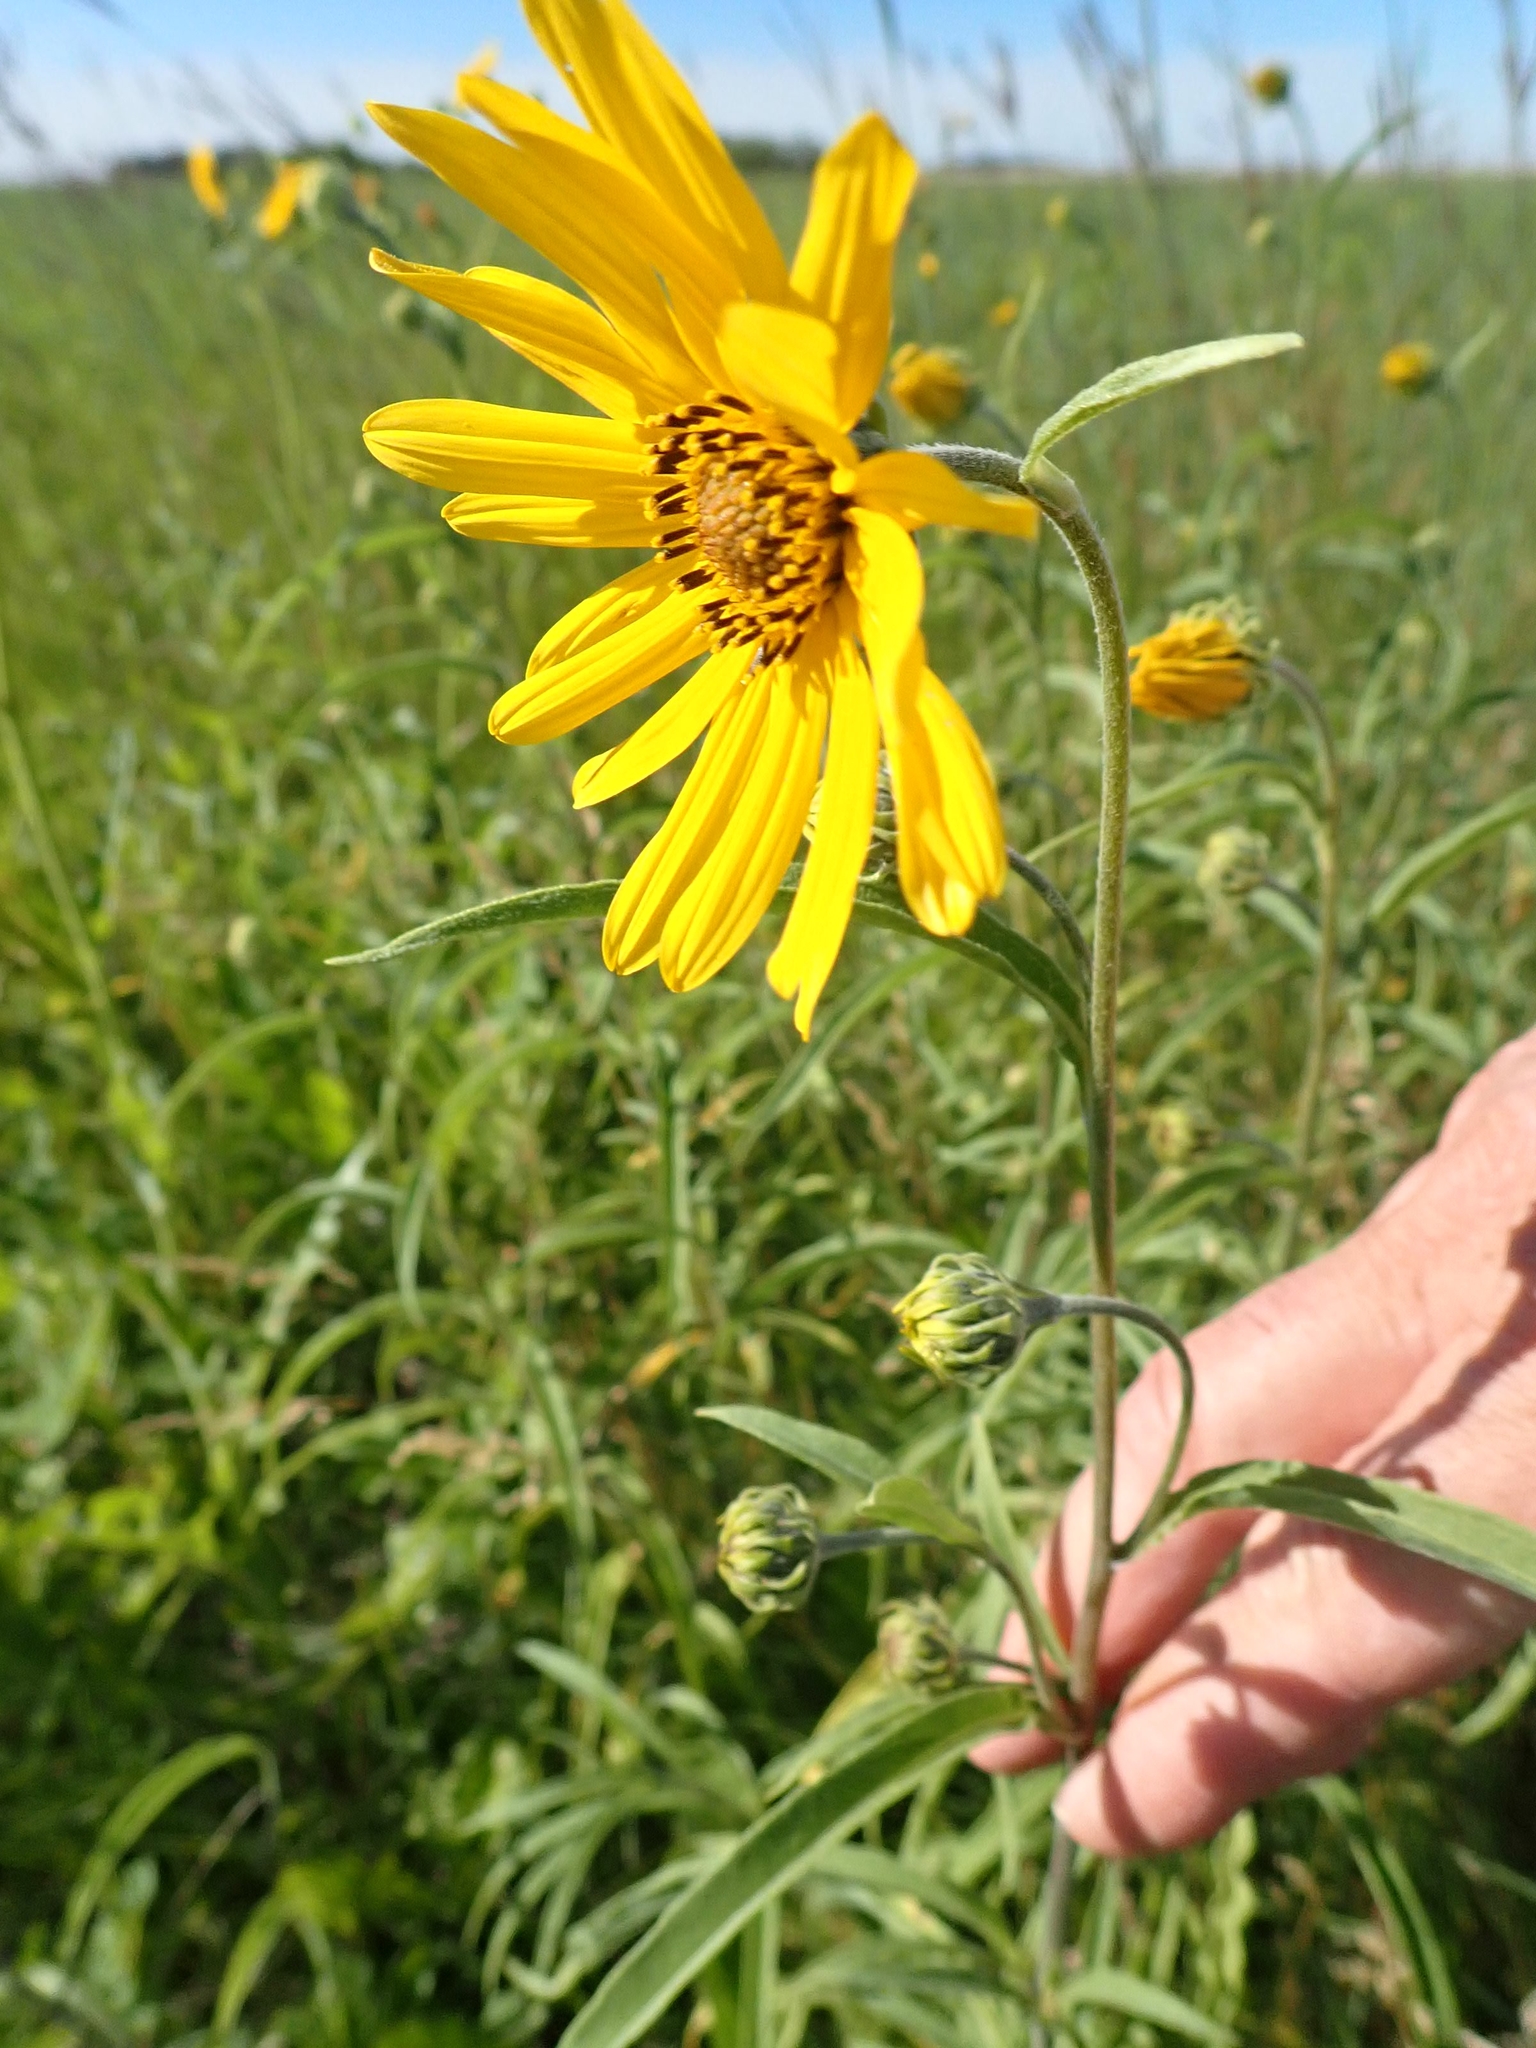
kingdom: Plantae
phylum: Tracheophyta
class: Magnoliopsida
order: Asterales
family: Asteraceae
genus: Helianthus
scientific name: Helianthus maximiliani
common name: Maximilian's sunflower
